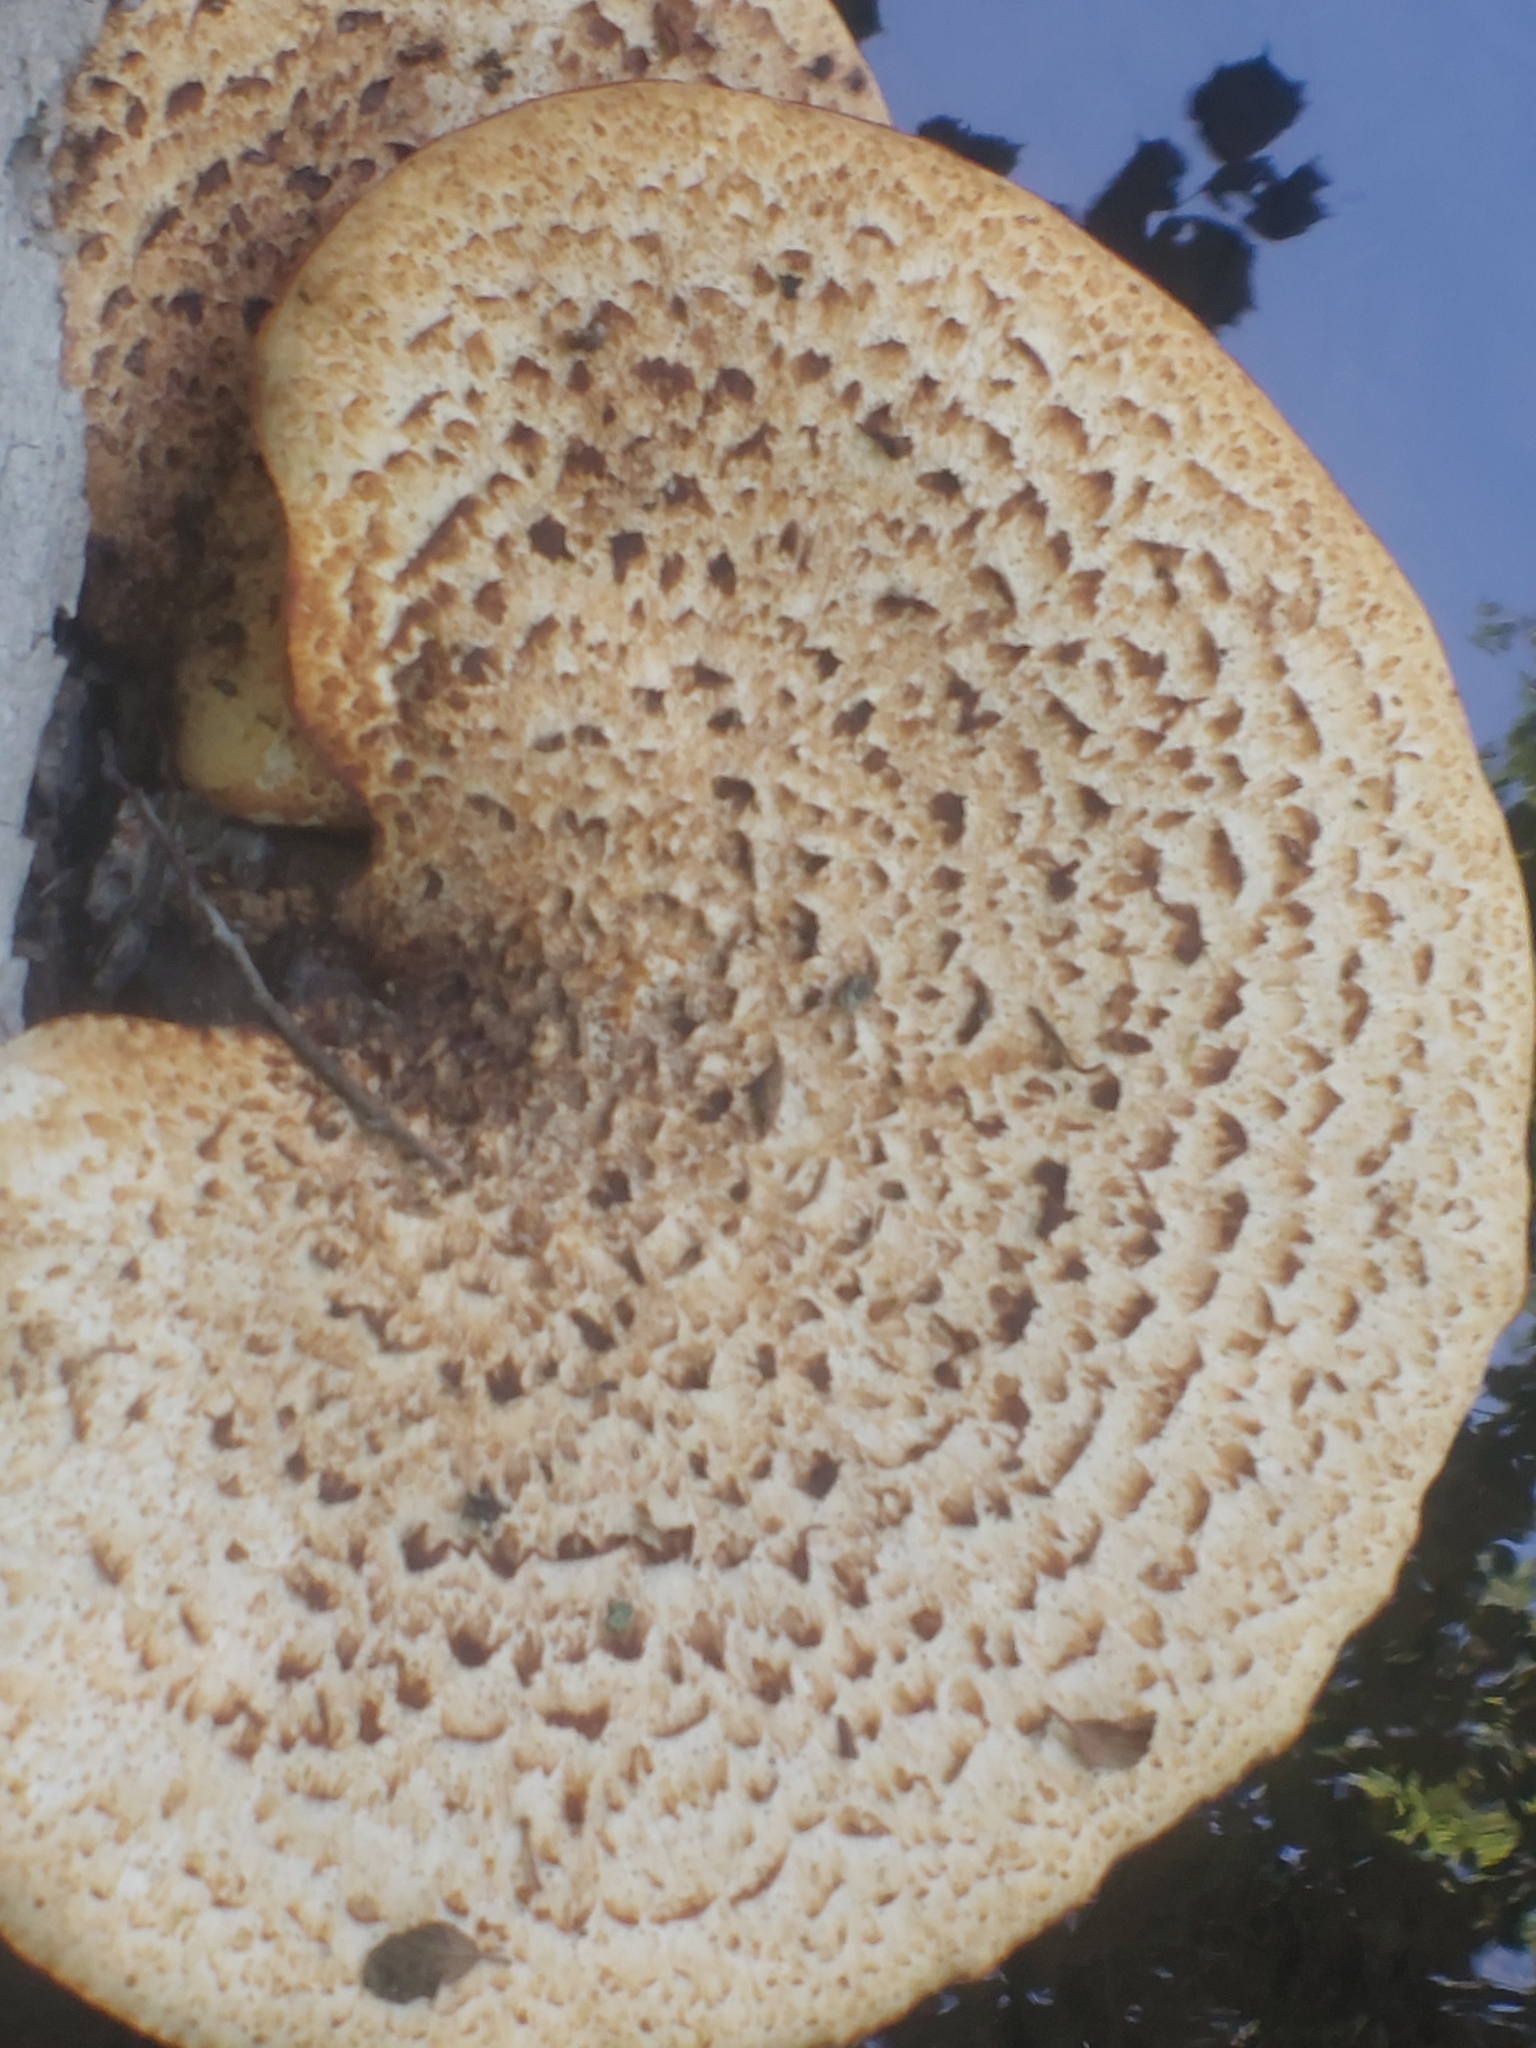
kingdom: Fungi
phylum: Basidiomycota
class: Agaricomycetes
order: Polyporales
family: Polyporaceae
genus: Cerioporus
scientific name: Cerioporus squamosus
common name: Dryad's saddle
